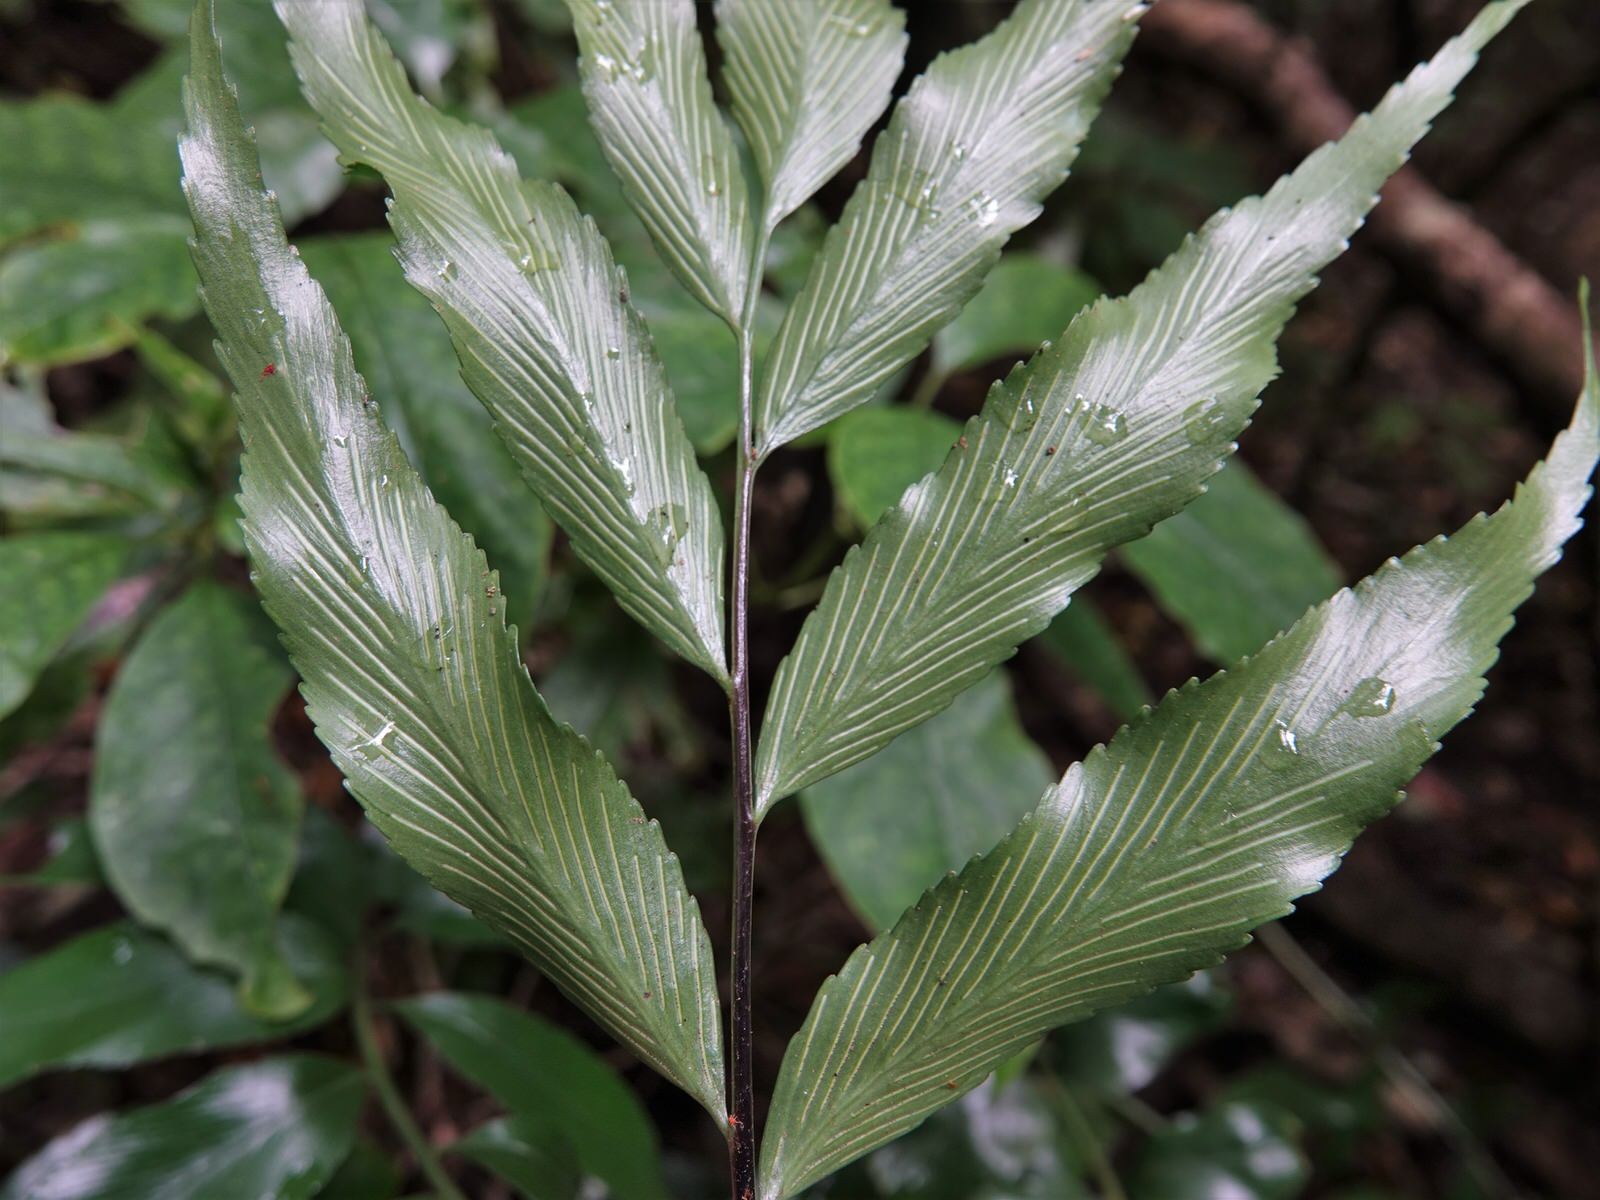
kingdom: Plantae
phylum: Tracheophyta
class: Polypodiopsida
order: Polypodiales
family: Aspleniaceae
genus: Asplenium
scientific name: Asplenium oblongifolium
